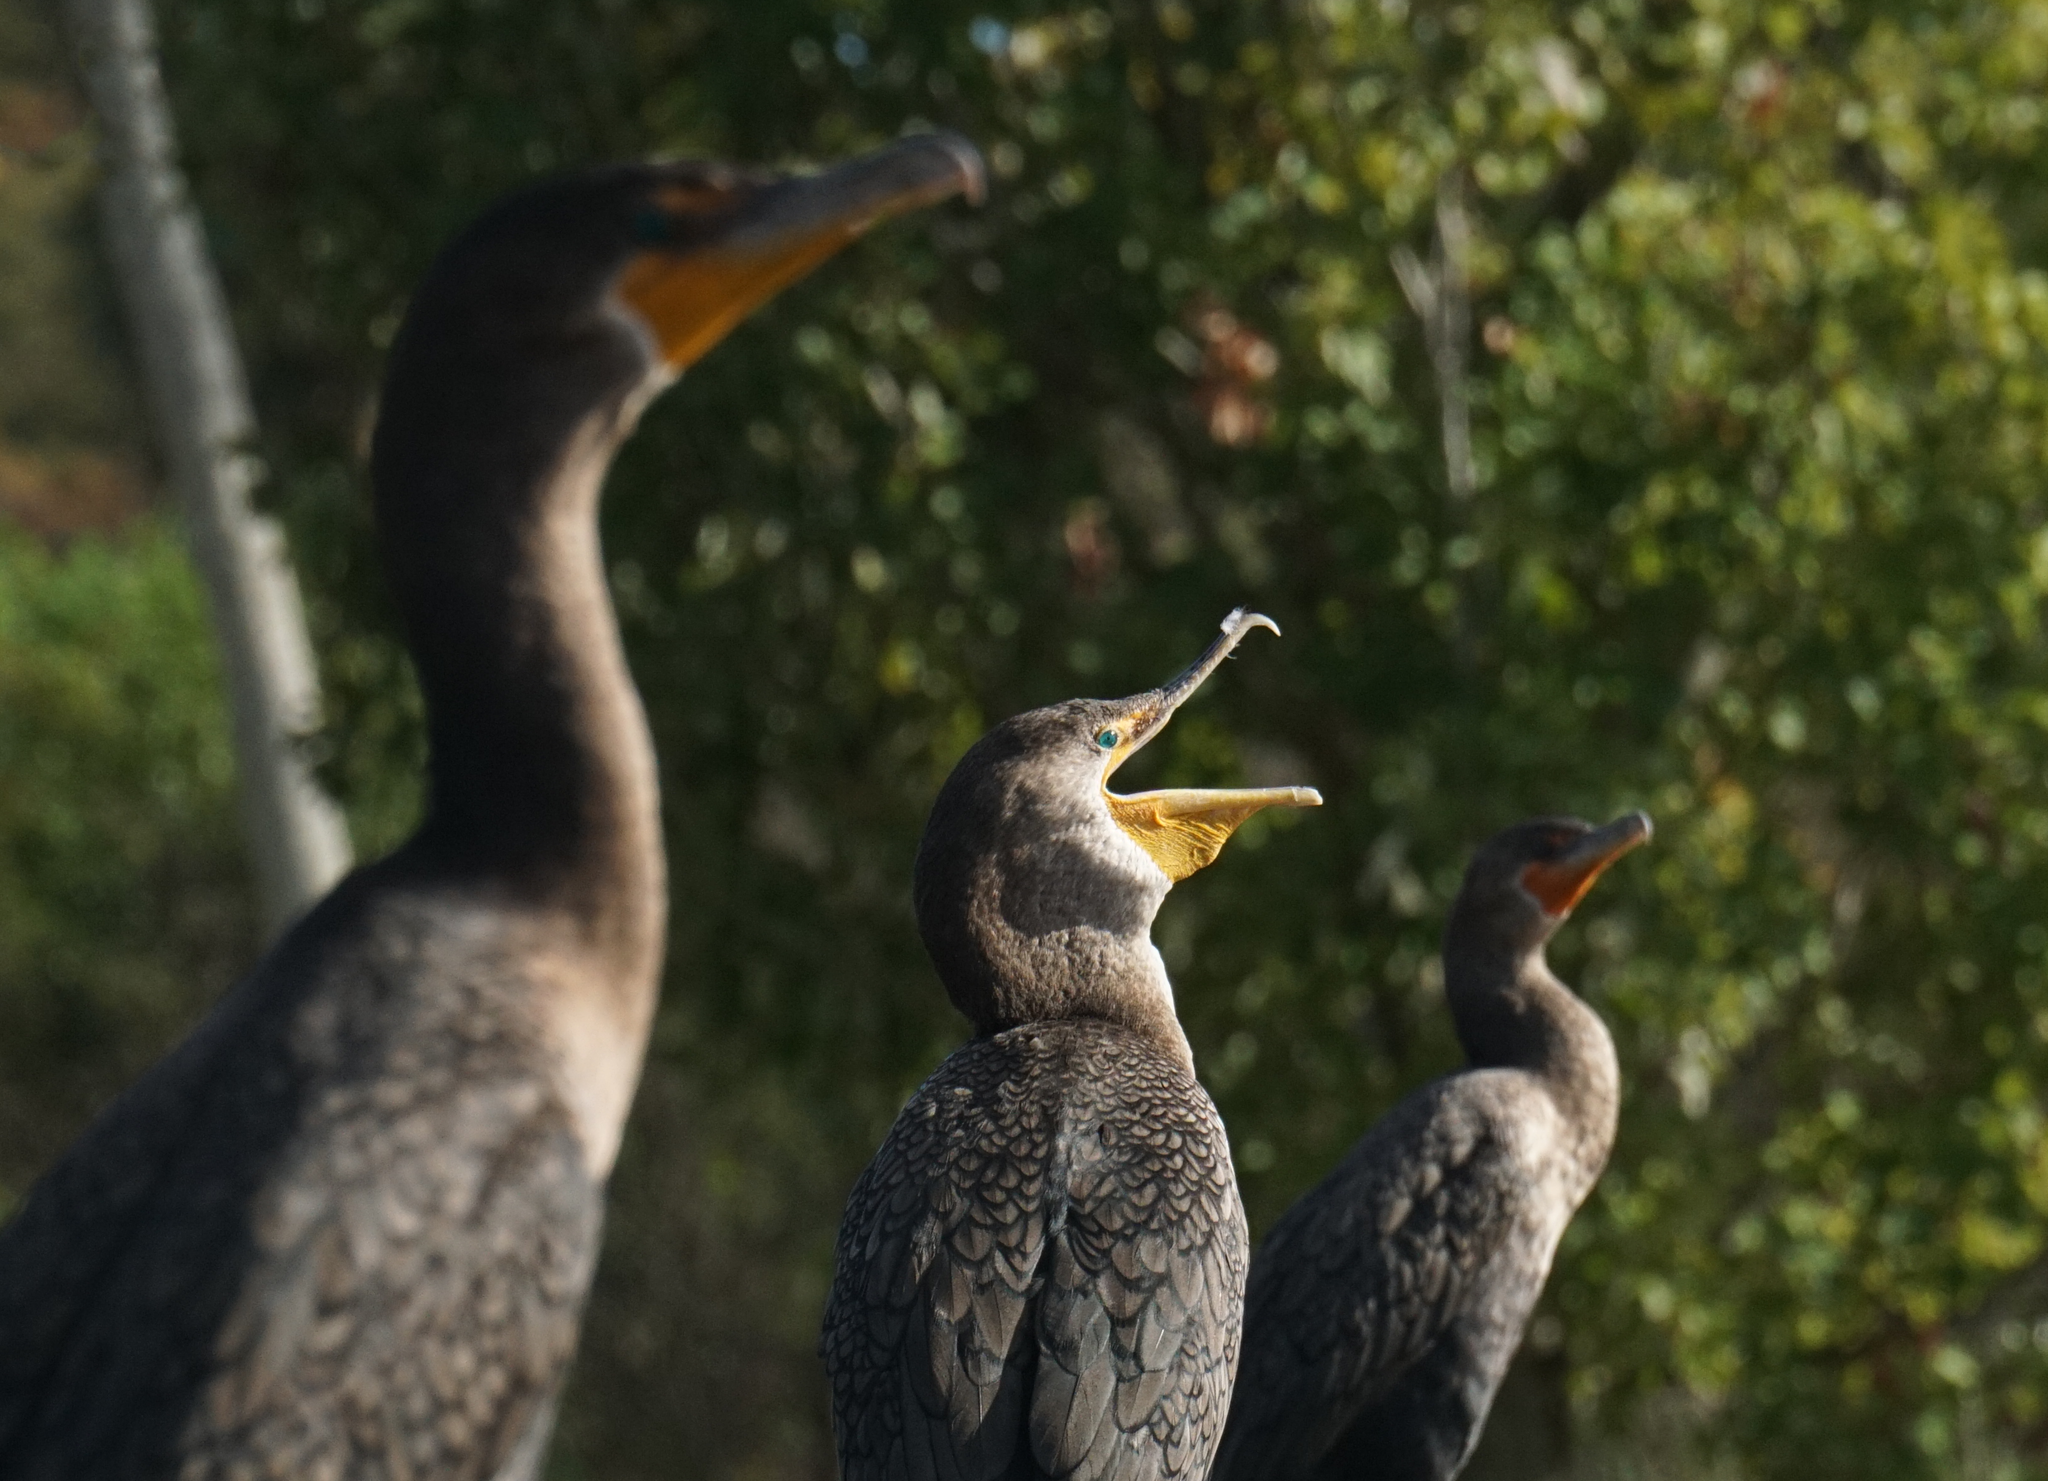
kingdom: Animalia
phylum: Chordata
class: Aves
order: Suliformes
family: Phalacrocoracidae
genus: Phalacrocorax
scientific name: Phalacrocorax auritus
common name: Double-crested cormorant
